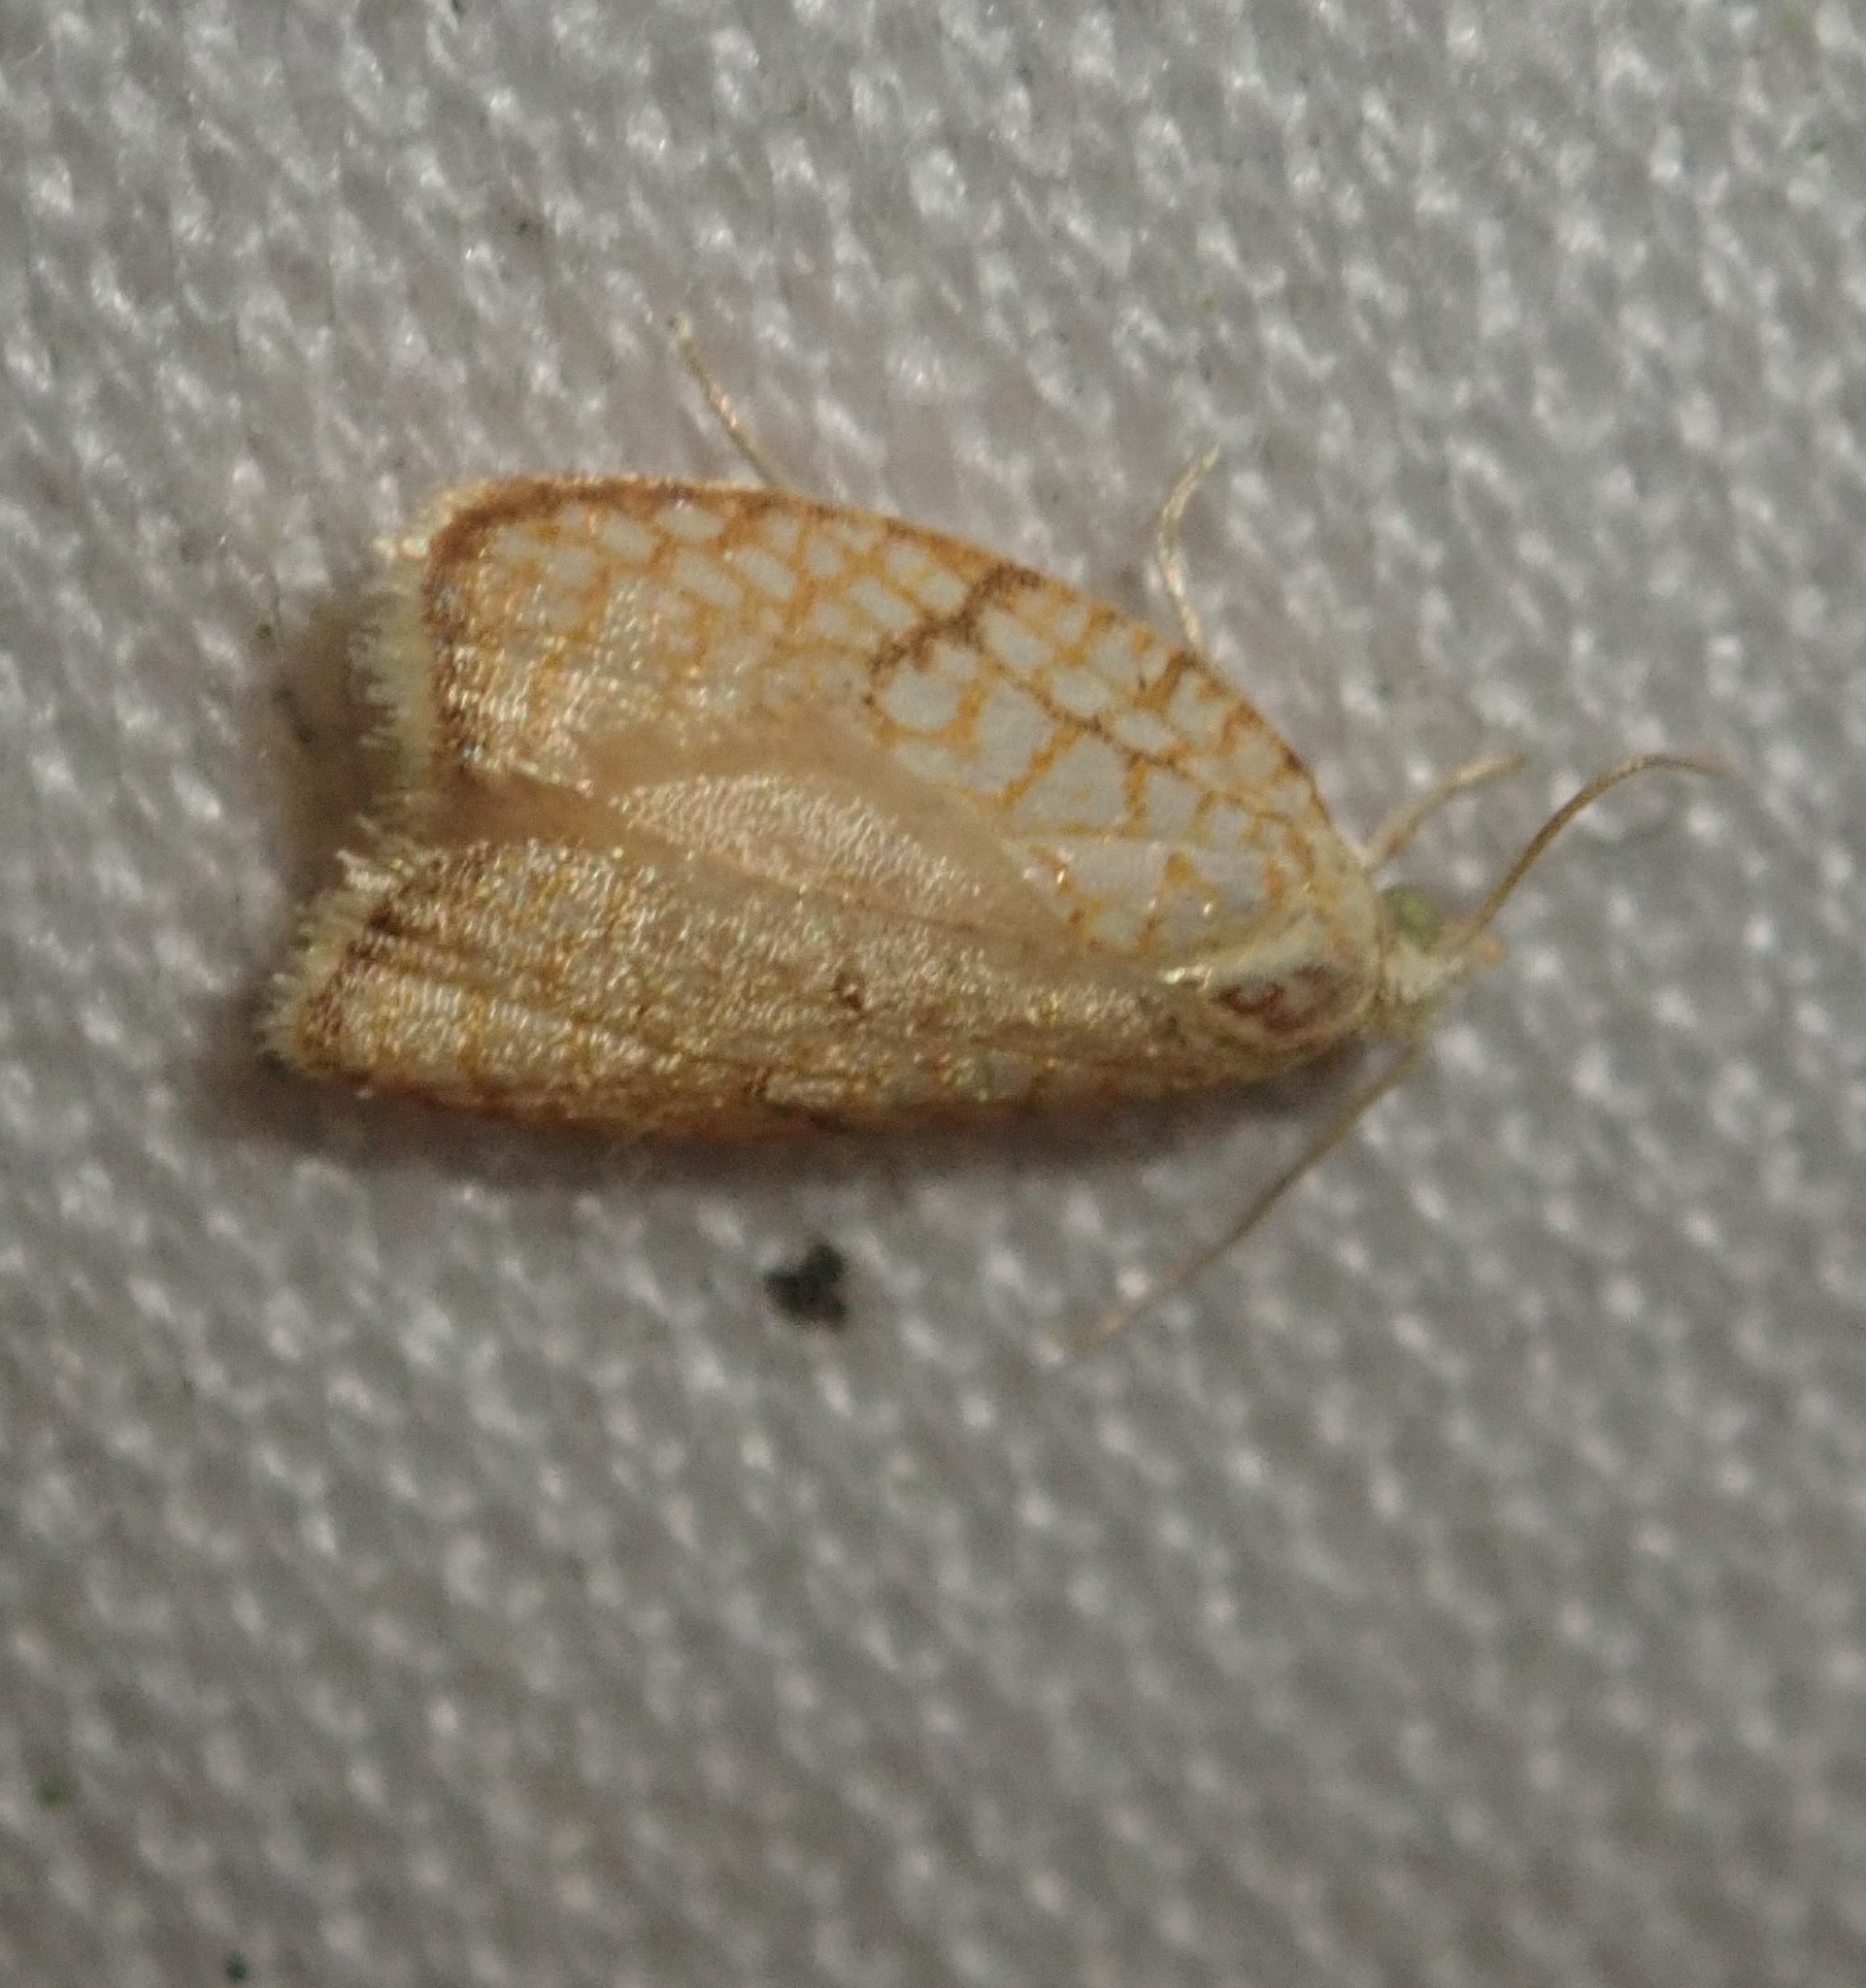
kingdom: Animalia
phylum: Arthropoda
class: Insecta
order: Lepidoptera
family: Tortricidae
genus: Acleris
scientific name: Acleris forsskaleana
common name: Maple button
